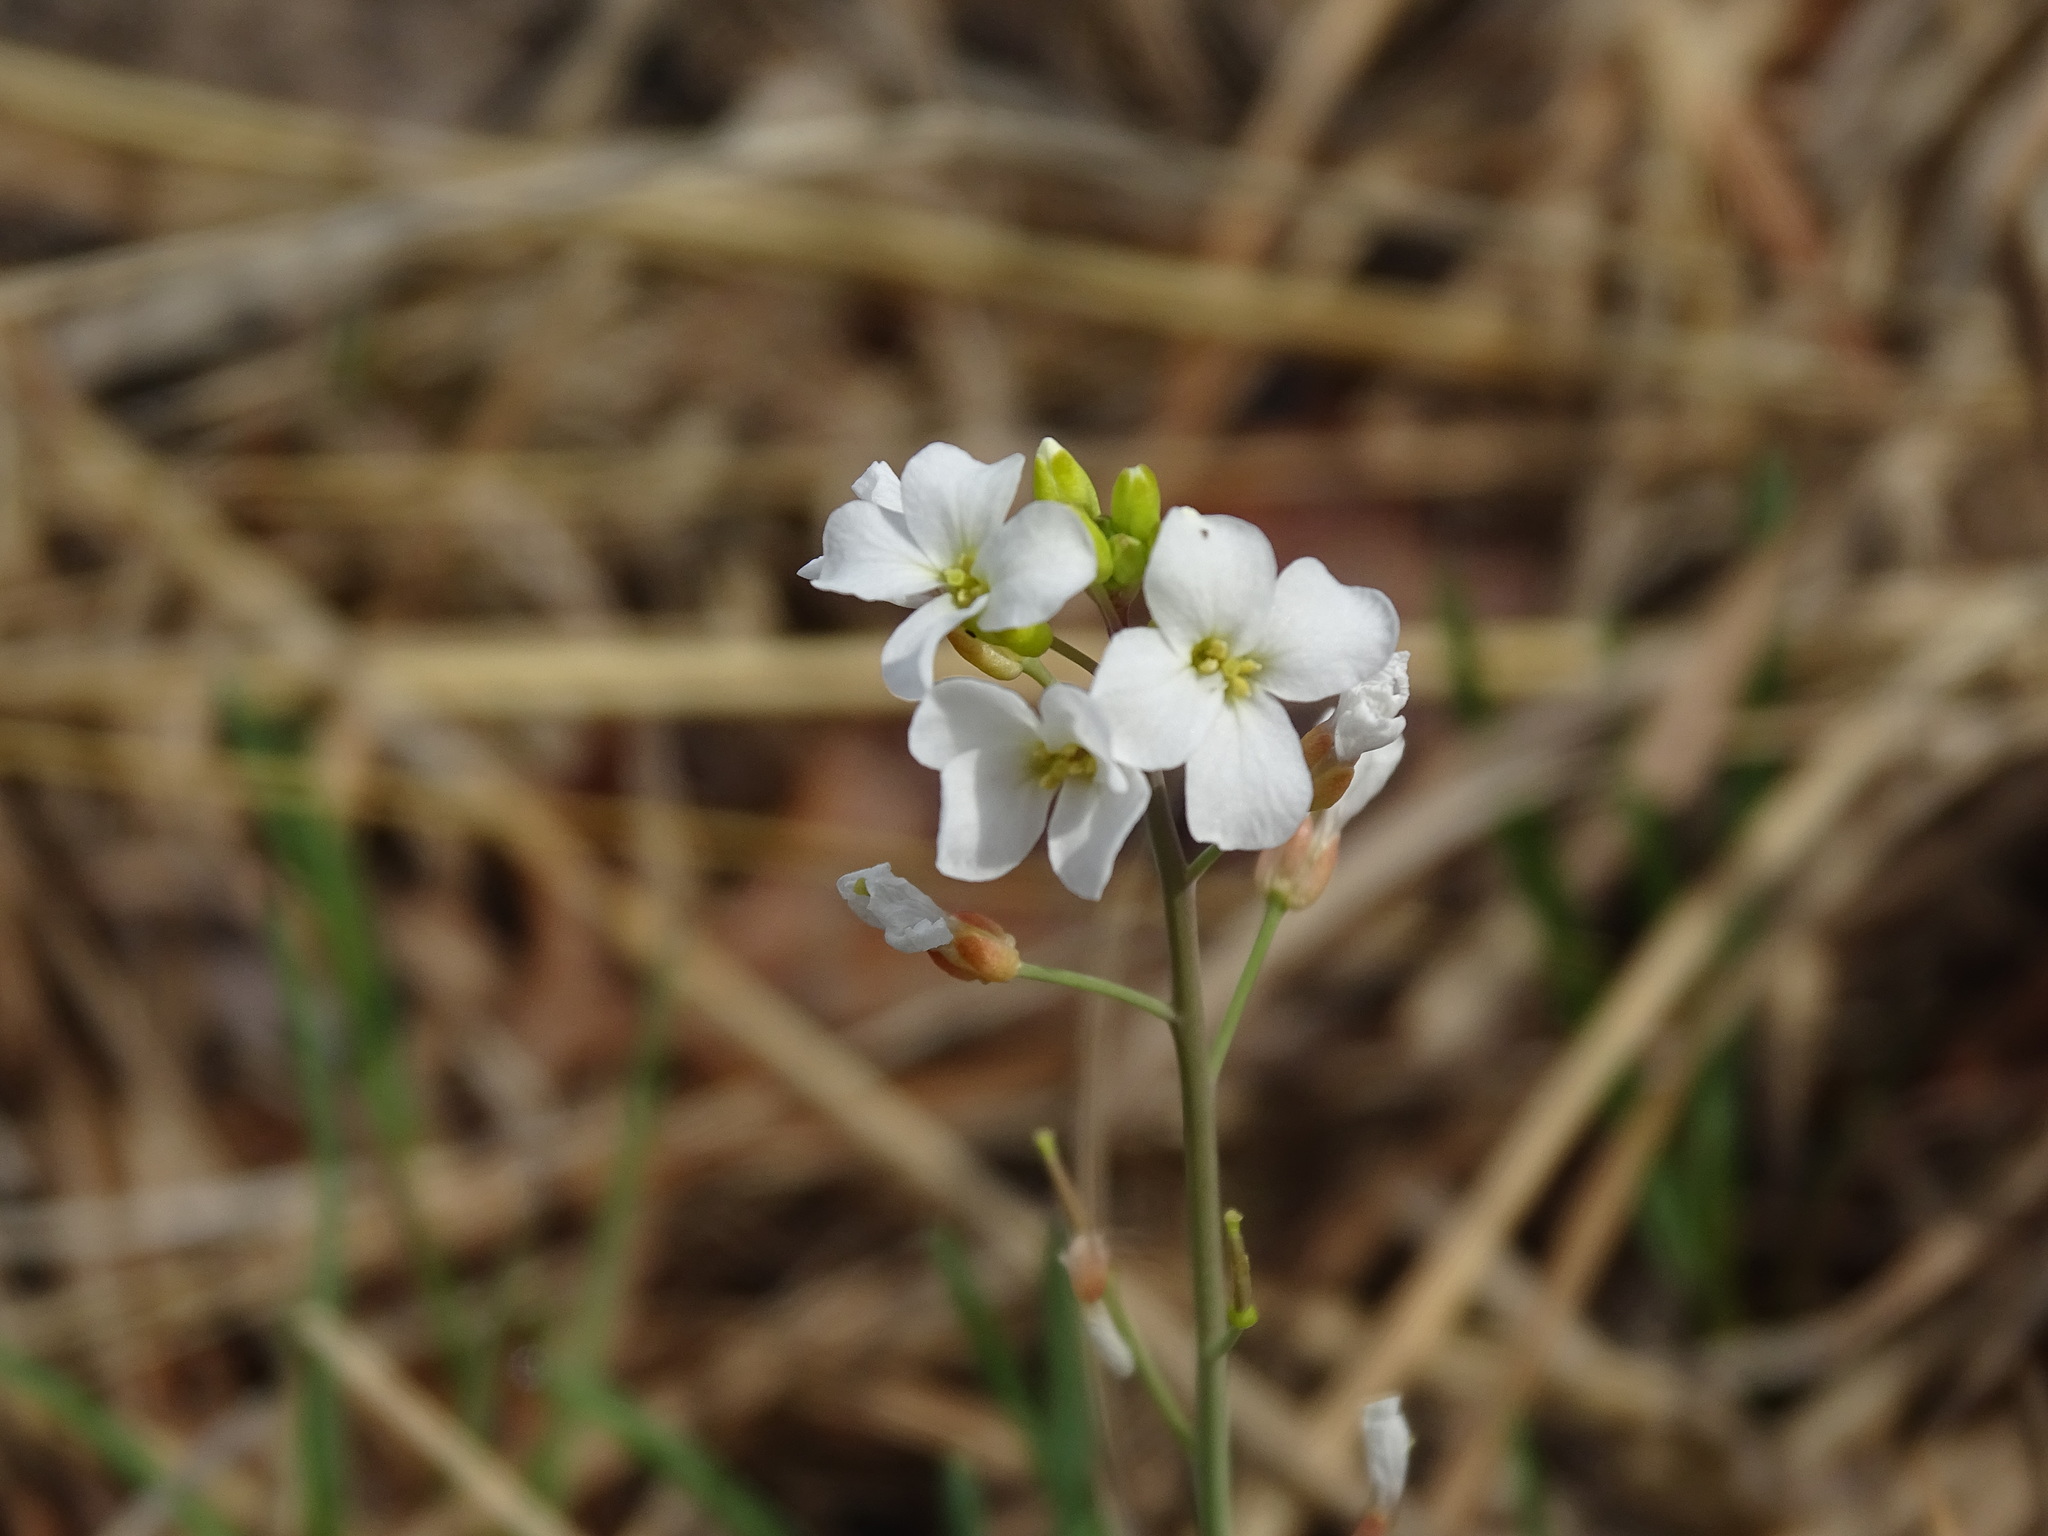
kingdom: Plantae
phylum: Tracheophyta
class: Magnoliopsida
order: Brassicales
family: Brassicaceae
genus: Arabidopsis
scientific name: Arabidopsis lyrata
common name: Lyrate rockcress
